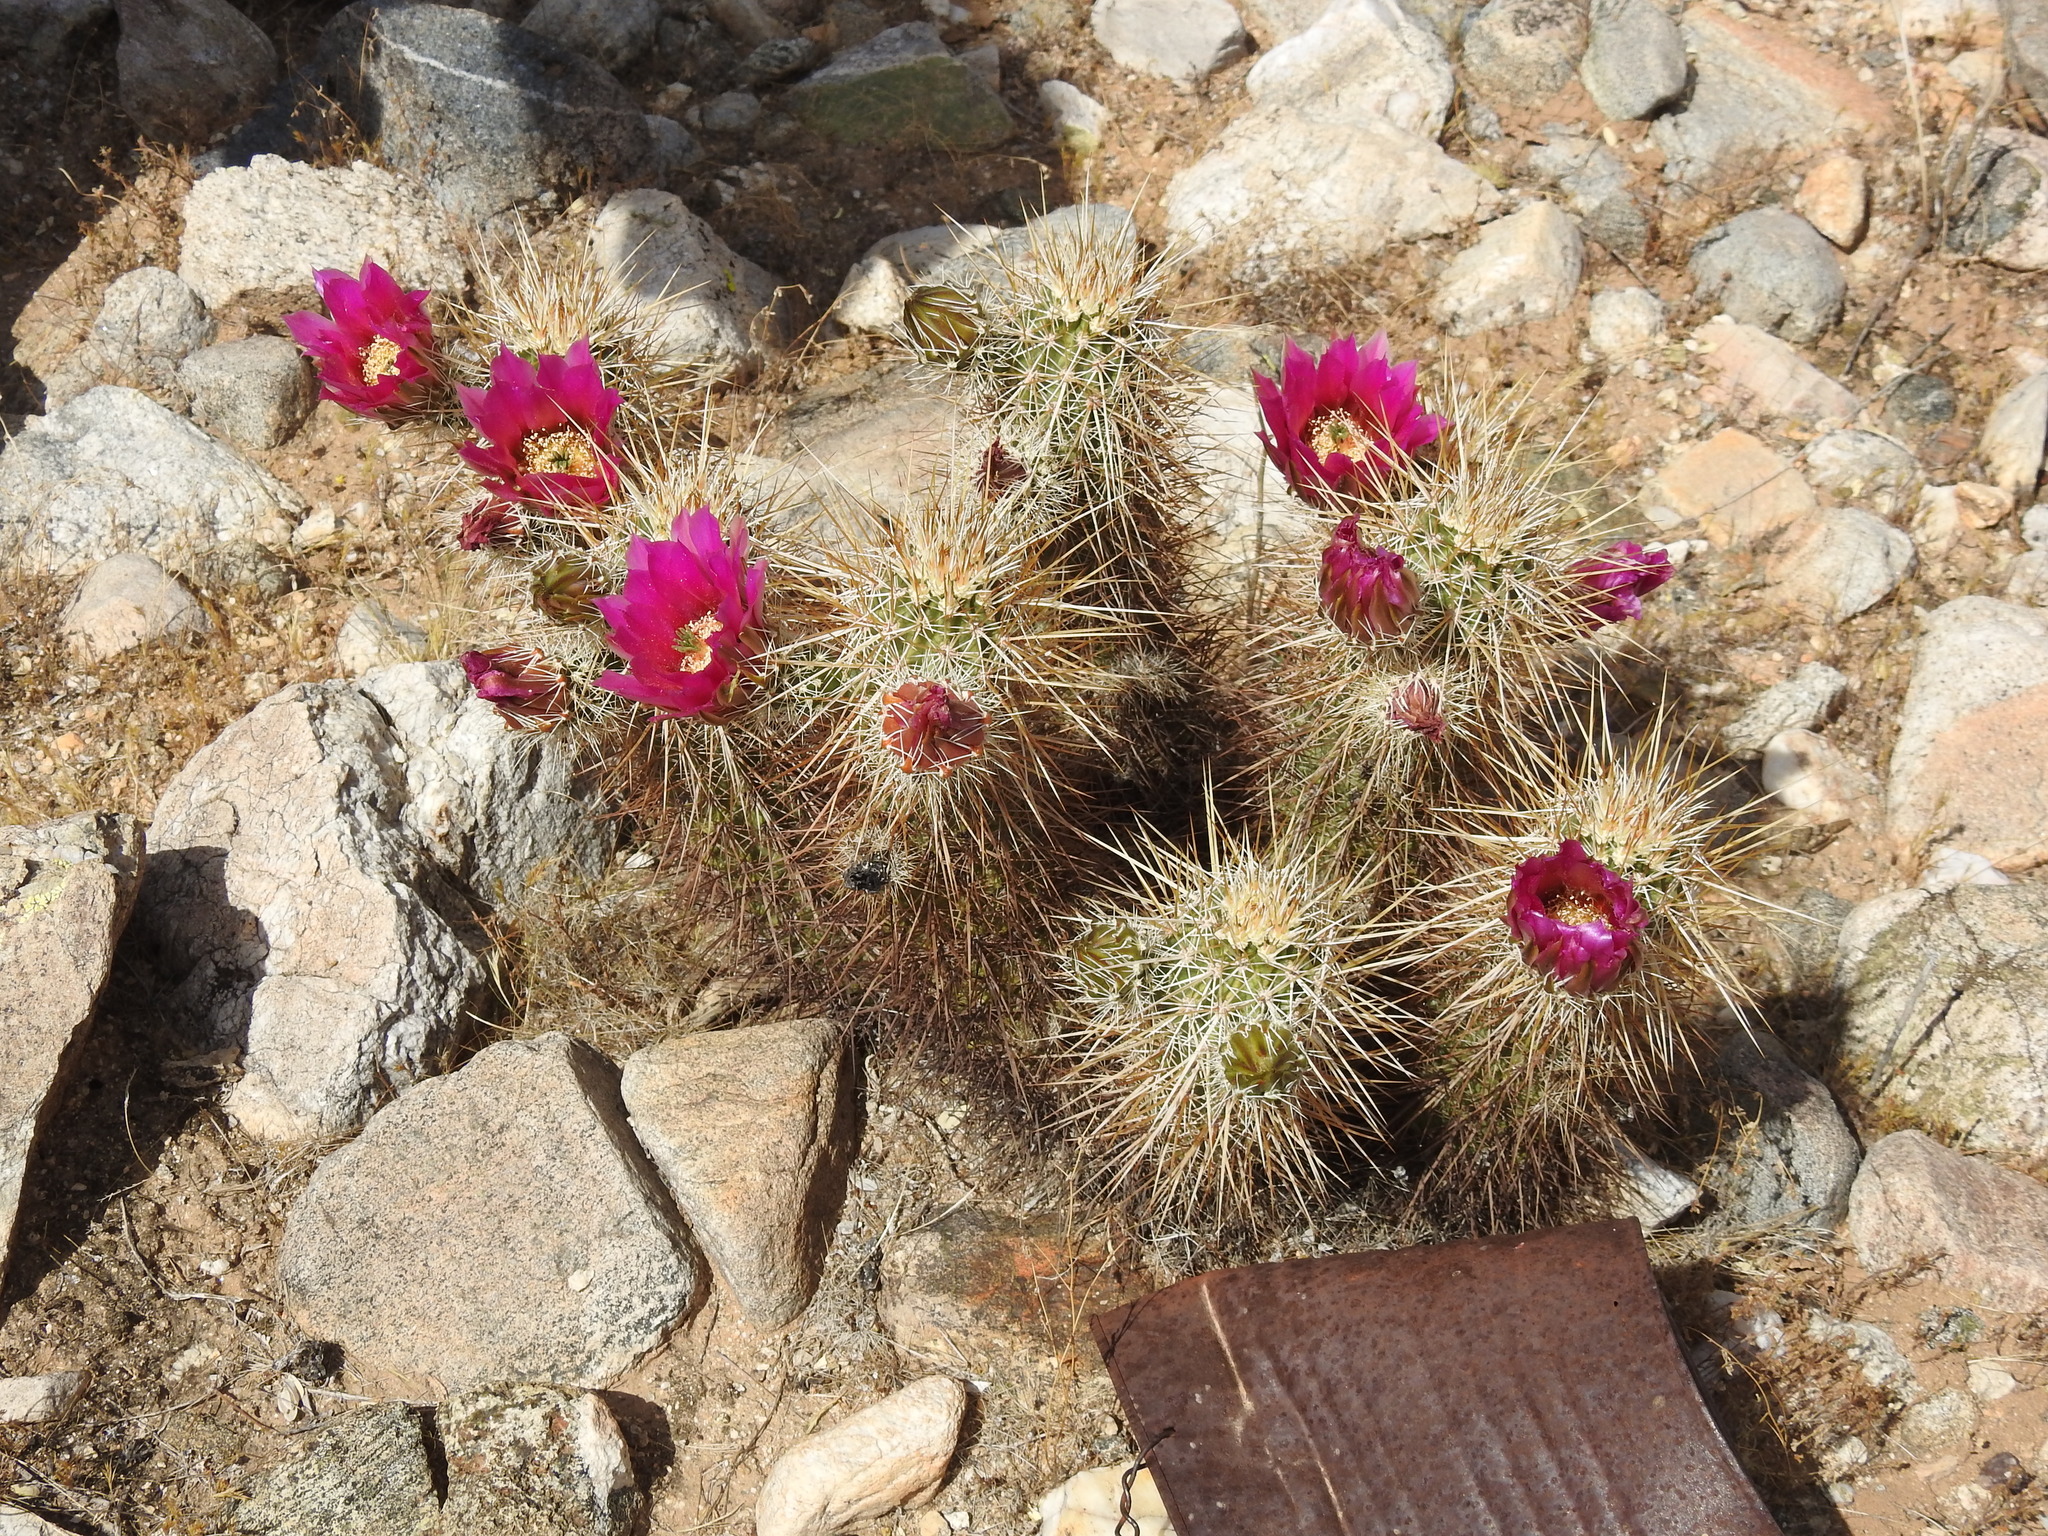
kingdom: Plantae
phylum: Tracheophyta
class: Magnoliopsida
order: Caryophyllales
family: Cactaceae
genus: Echinocereus
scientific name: Echinocereus engelmannii
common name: Engelmann's hedgehog cactus
